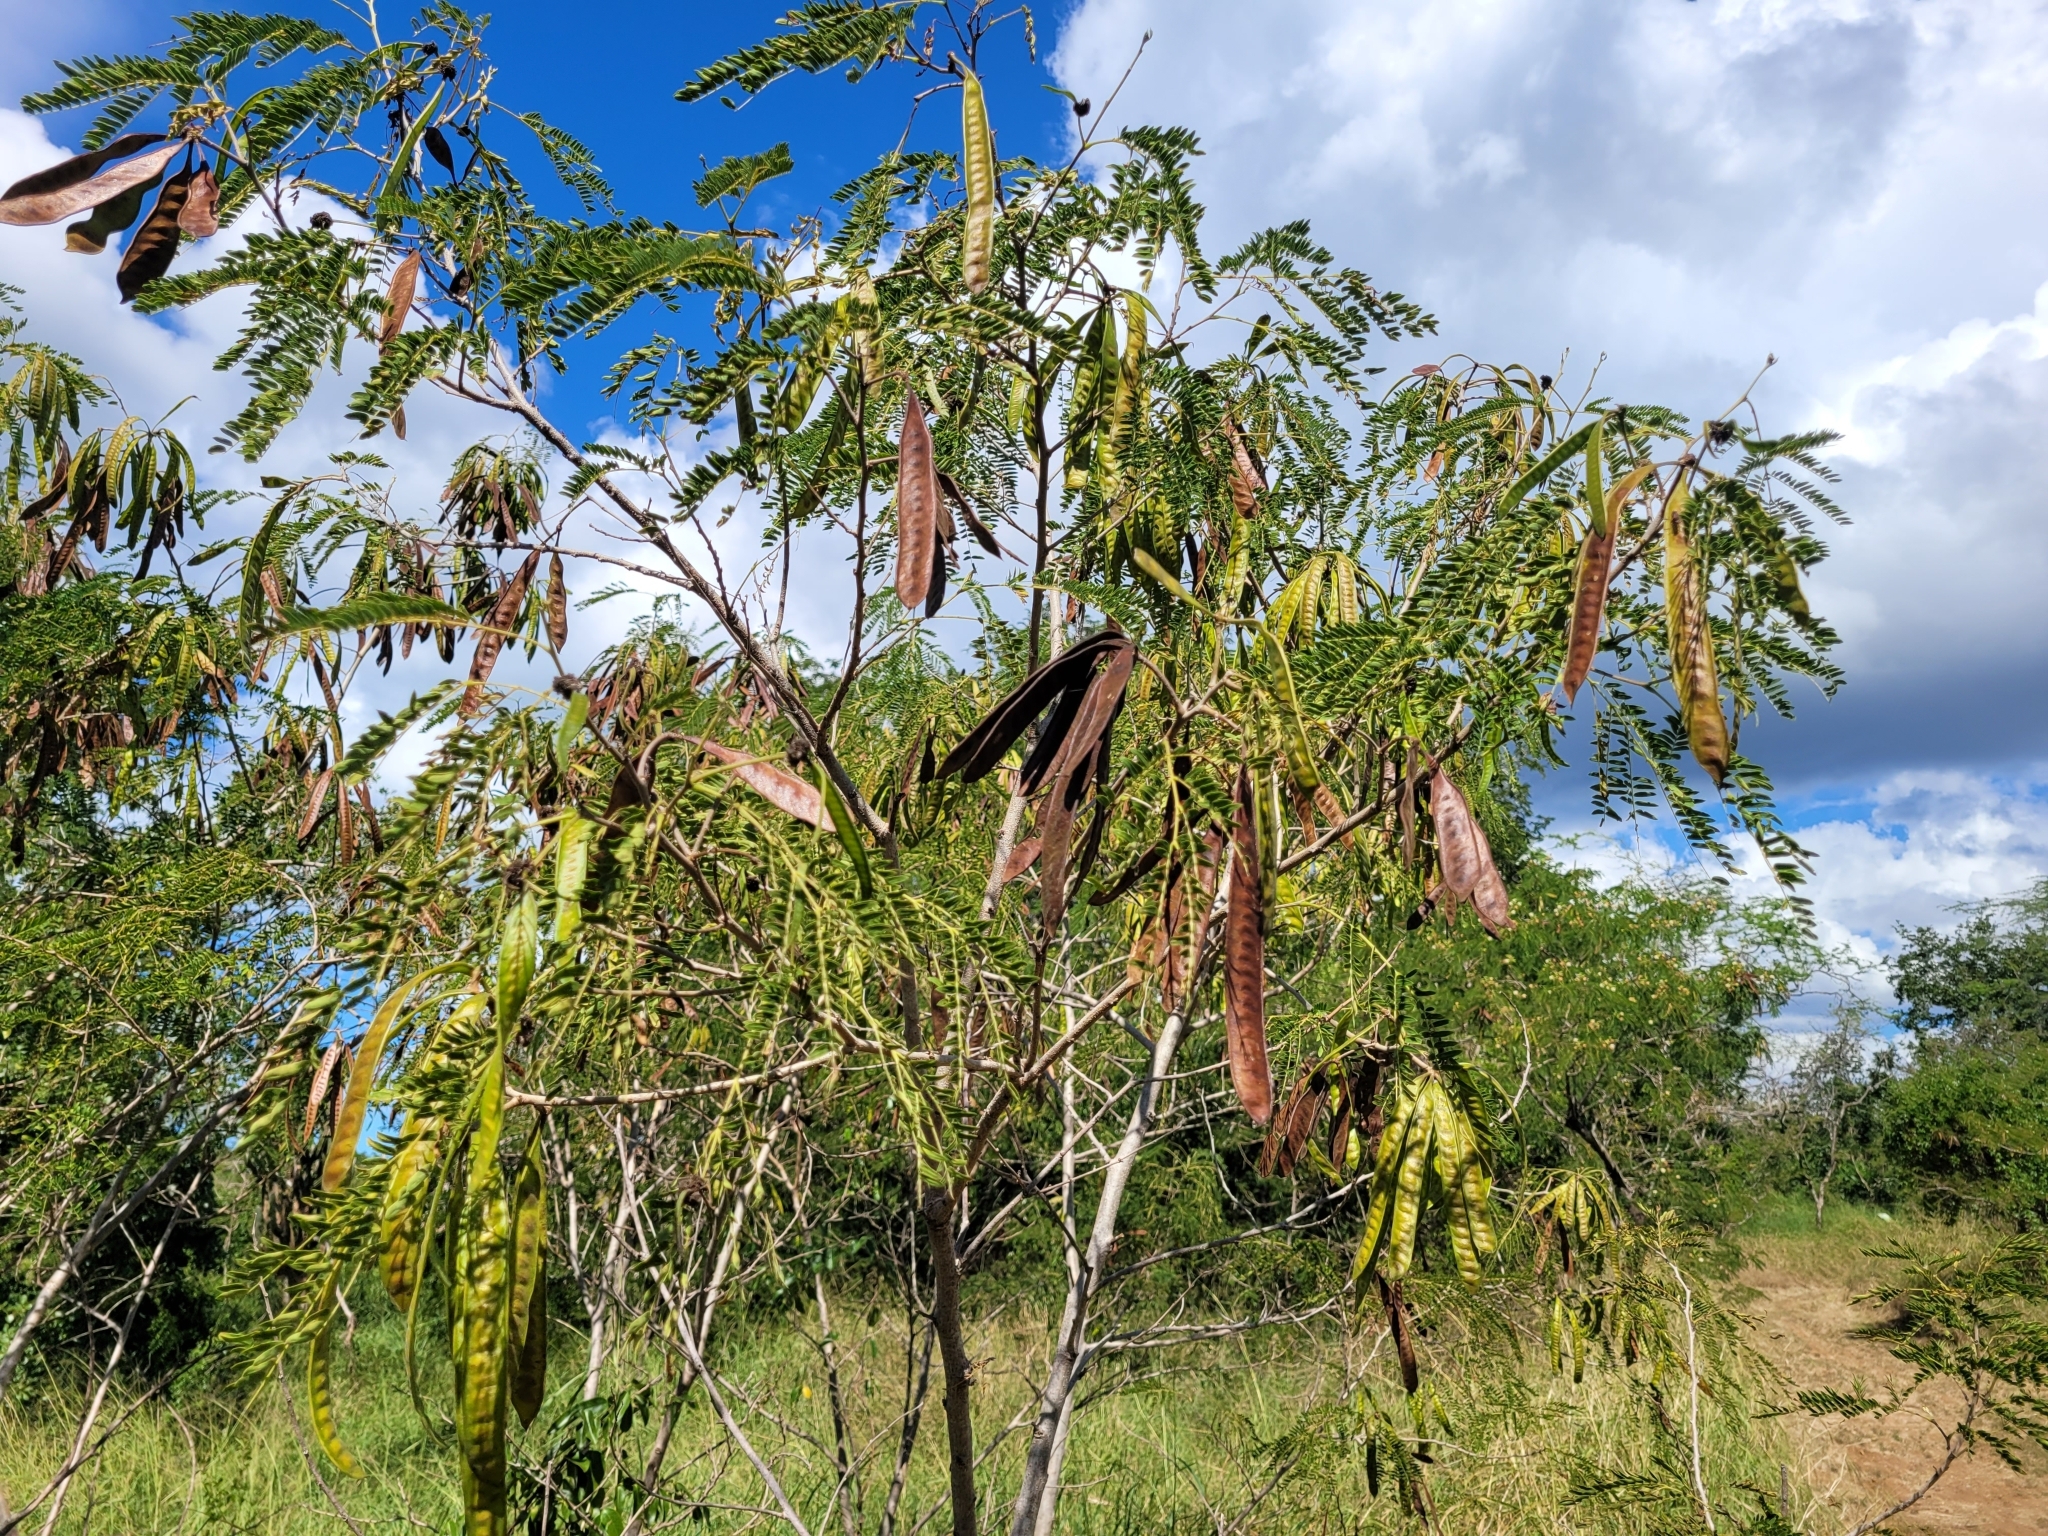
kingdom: Plantae
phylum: Tracheophyta
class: Magnoliopsida
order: Fabales
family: Fabaceae
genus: Leucaena
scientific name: Leucaena leucocephala
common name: White leadtree
